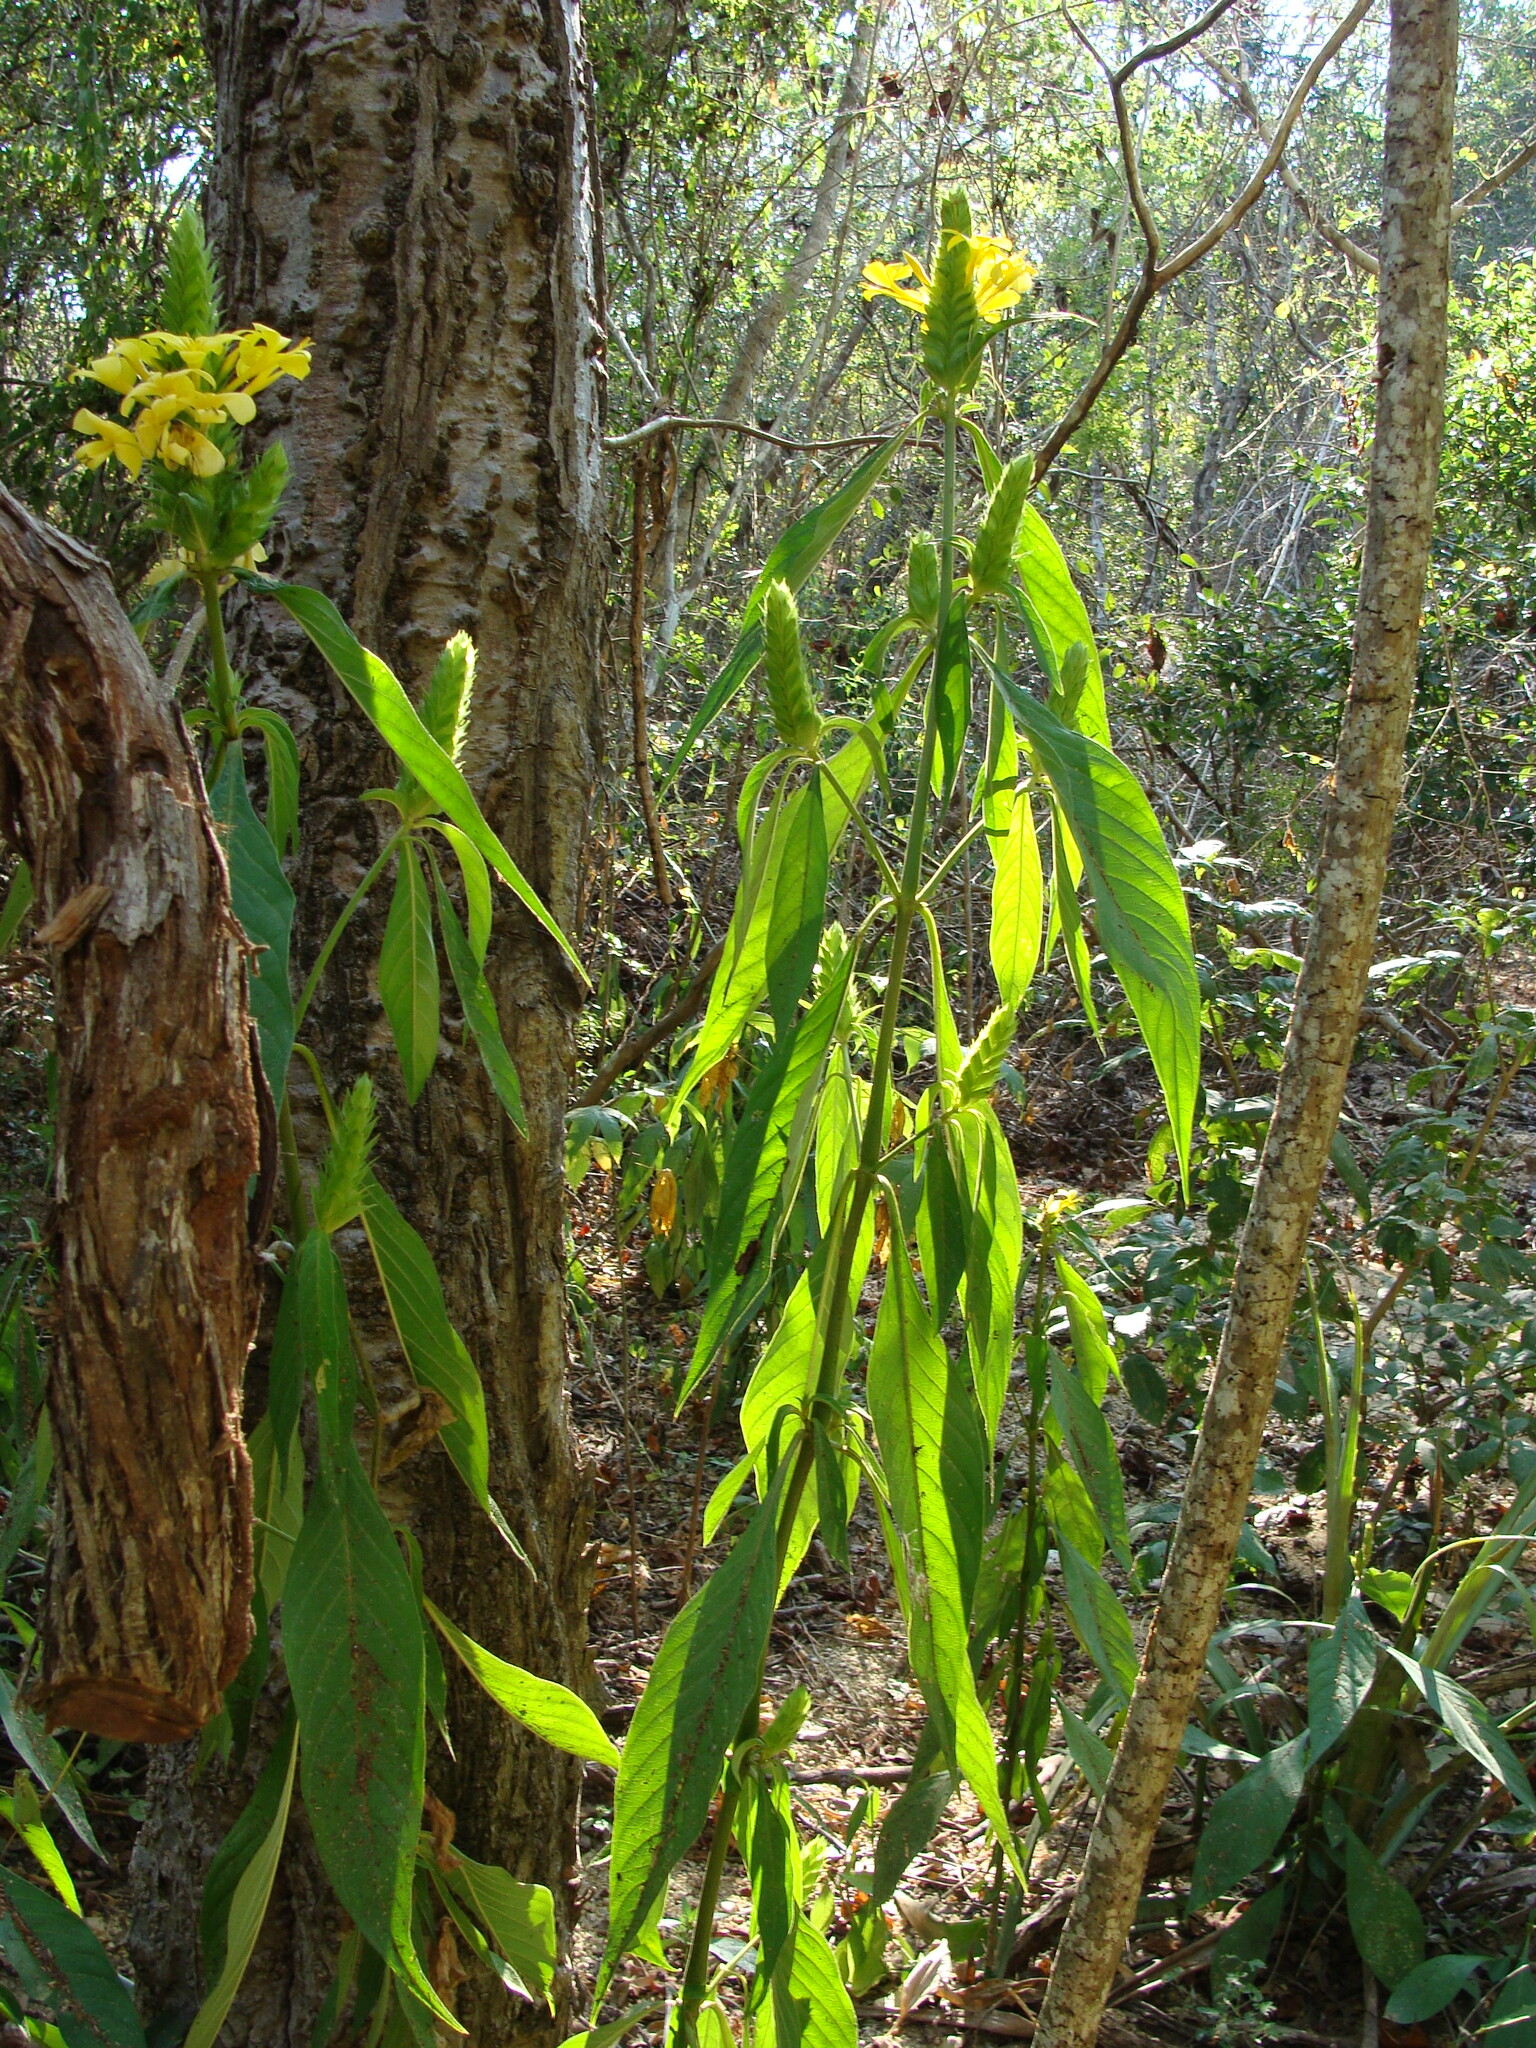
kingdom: Plantae
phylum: Tracheophyta
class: Magnoliopsida
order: Lamiales
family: Acanthaceae
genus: Barleria
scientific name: Barleria oenotheroides
